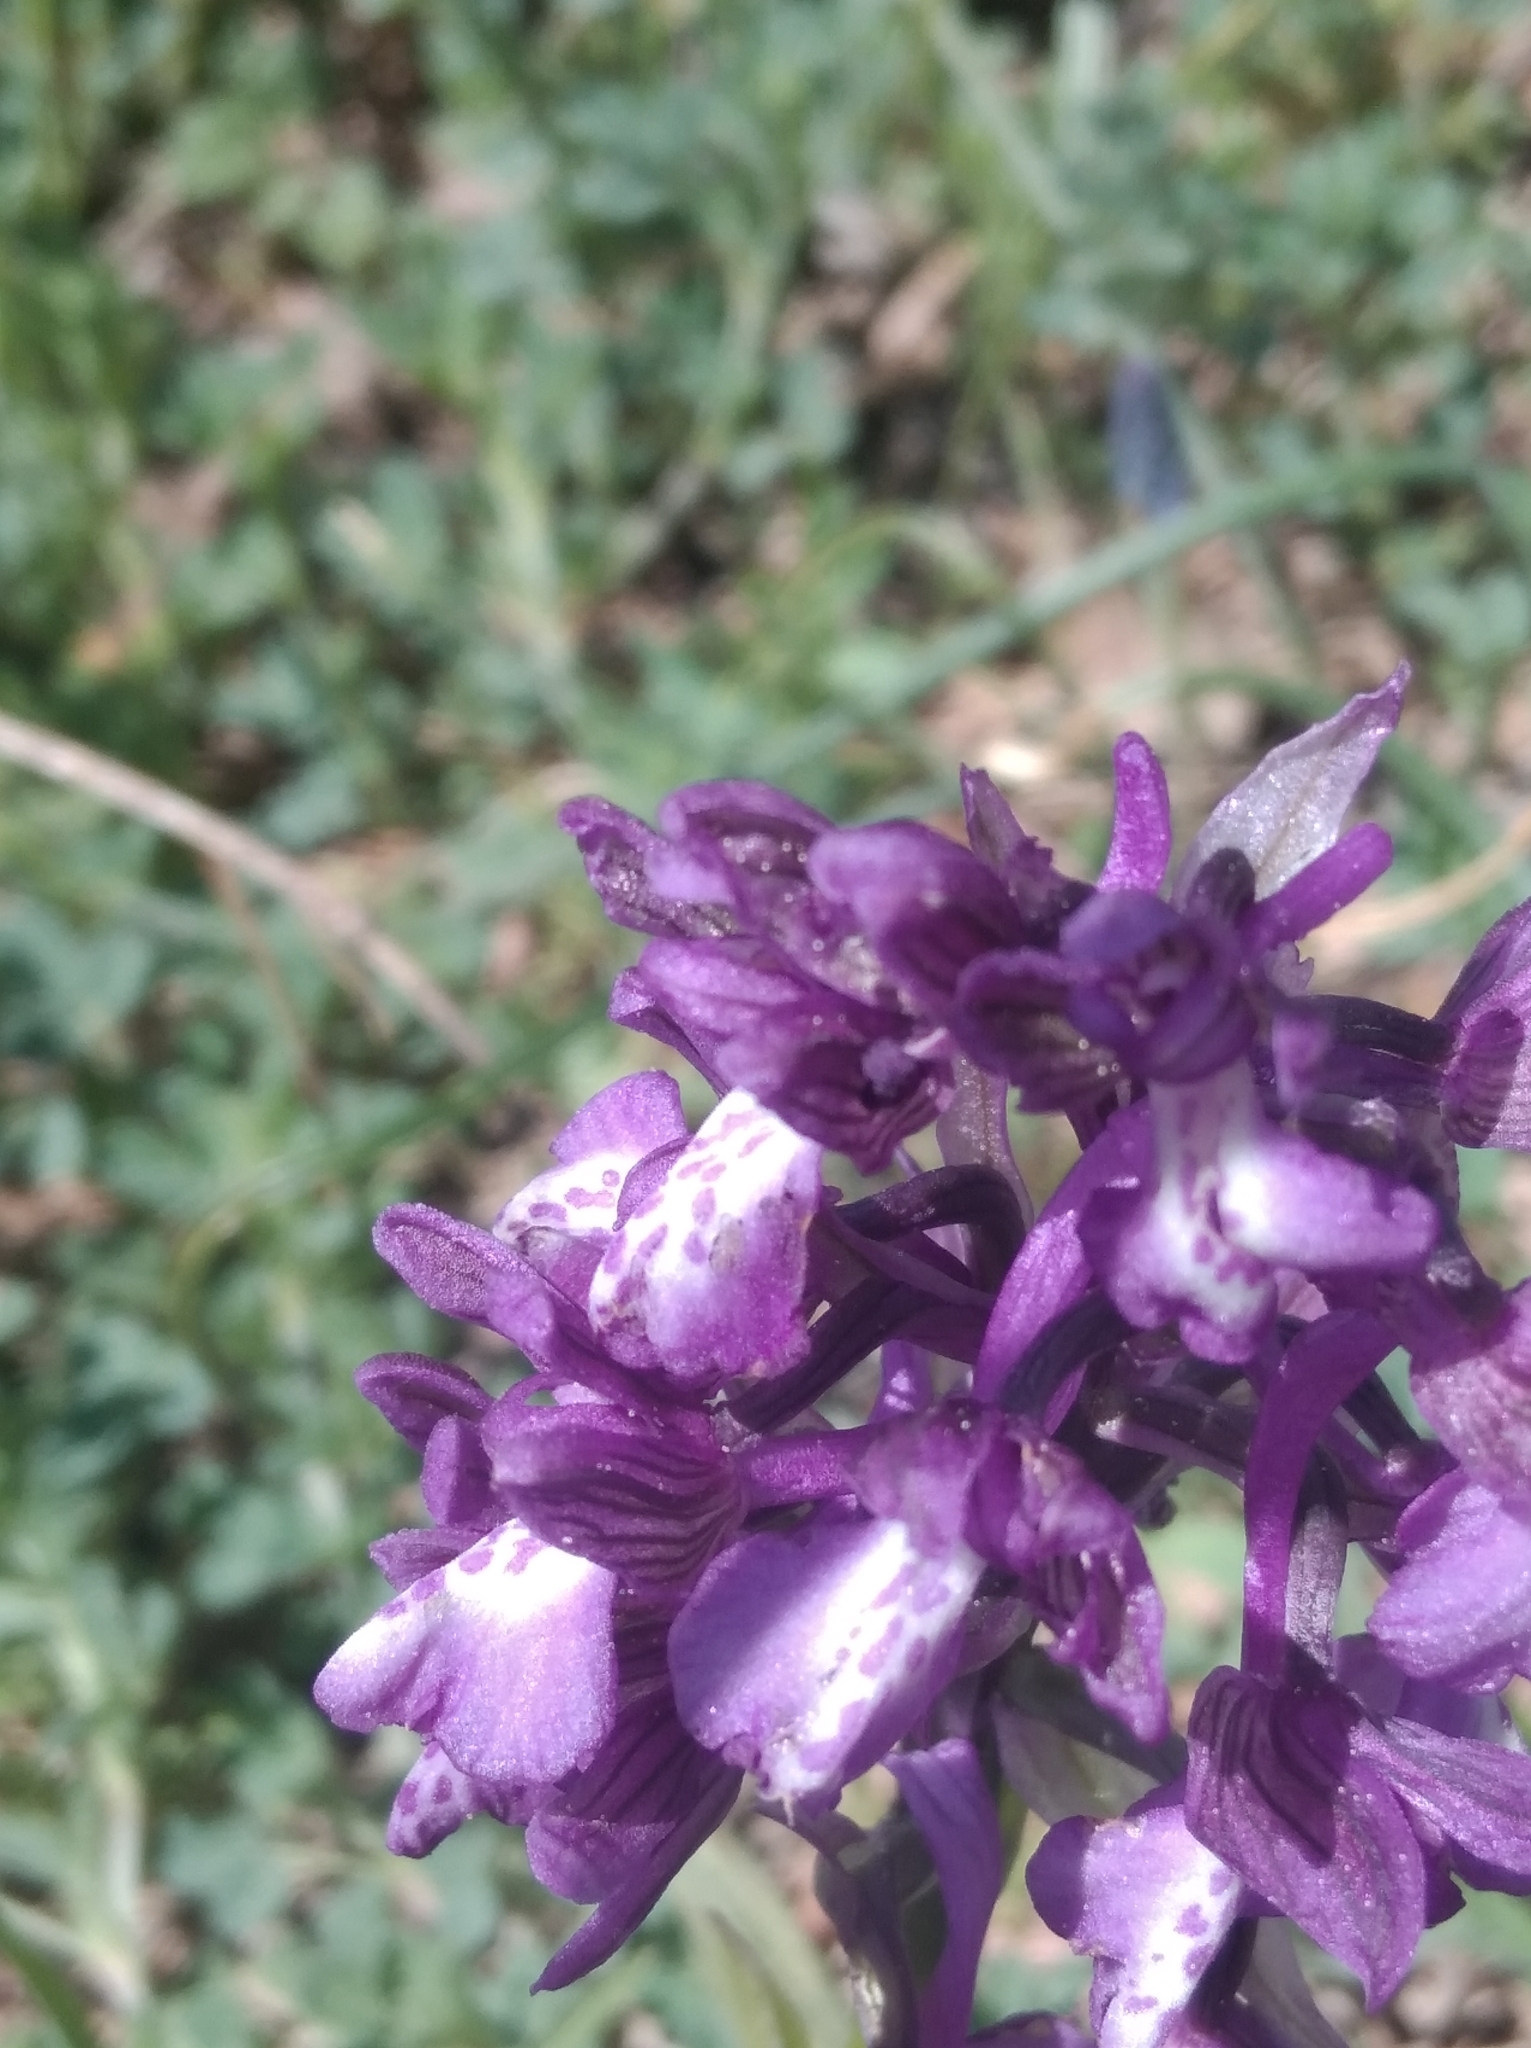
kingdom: Plantae
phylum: Tracheophyta
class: Liliopsida
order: Asparagales
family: Orchidaceae
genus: Anacamptis
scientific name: Anacamptis morio
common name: Green-winged orchid
